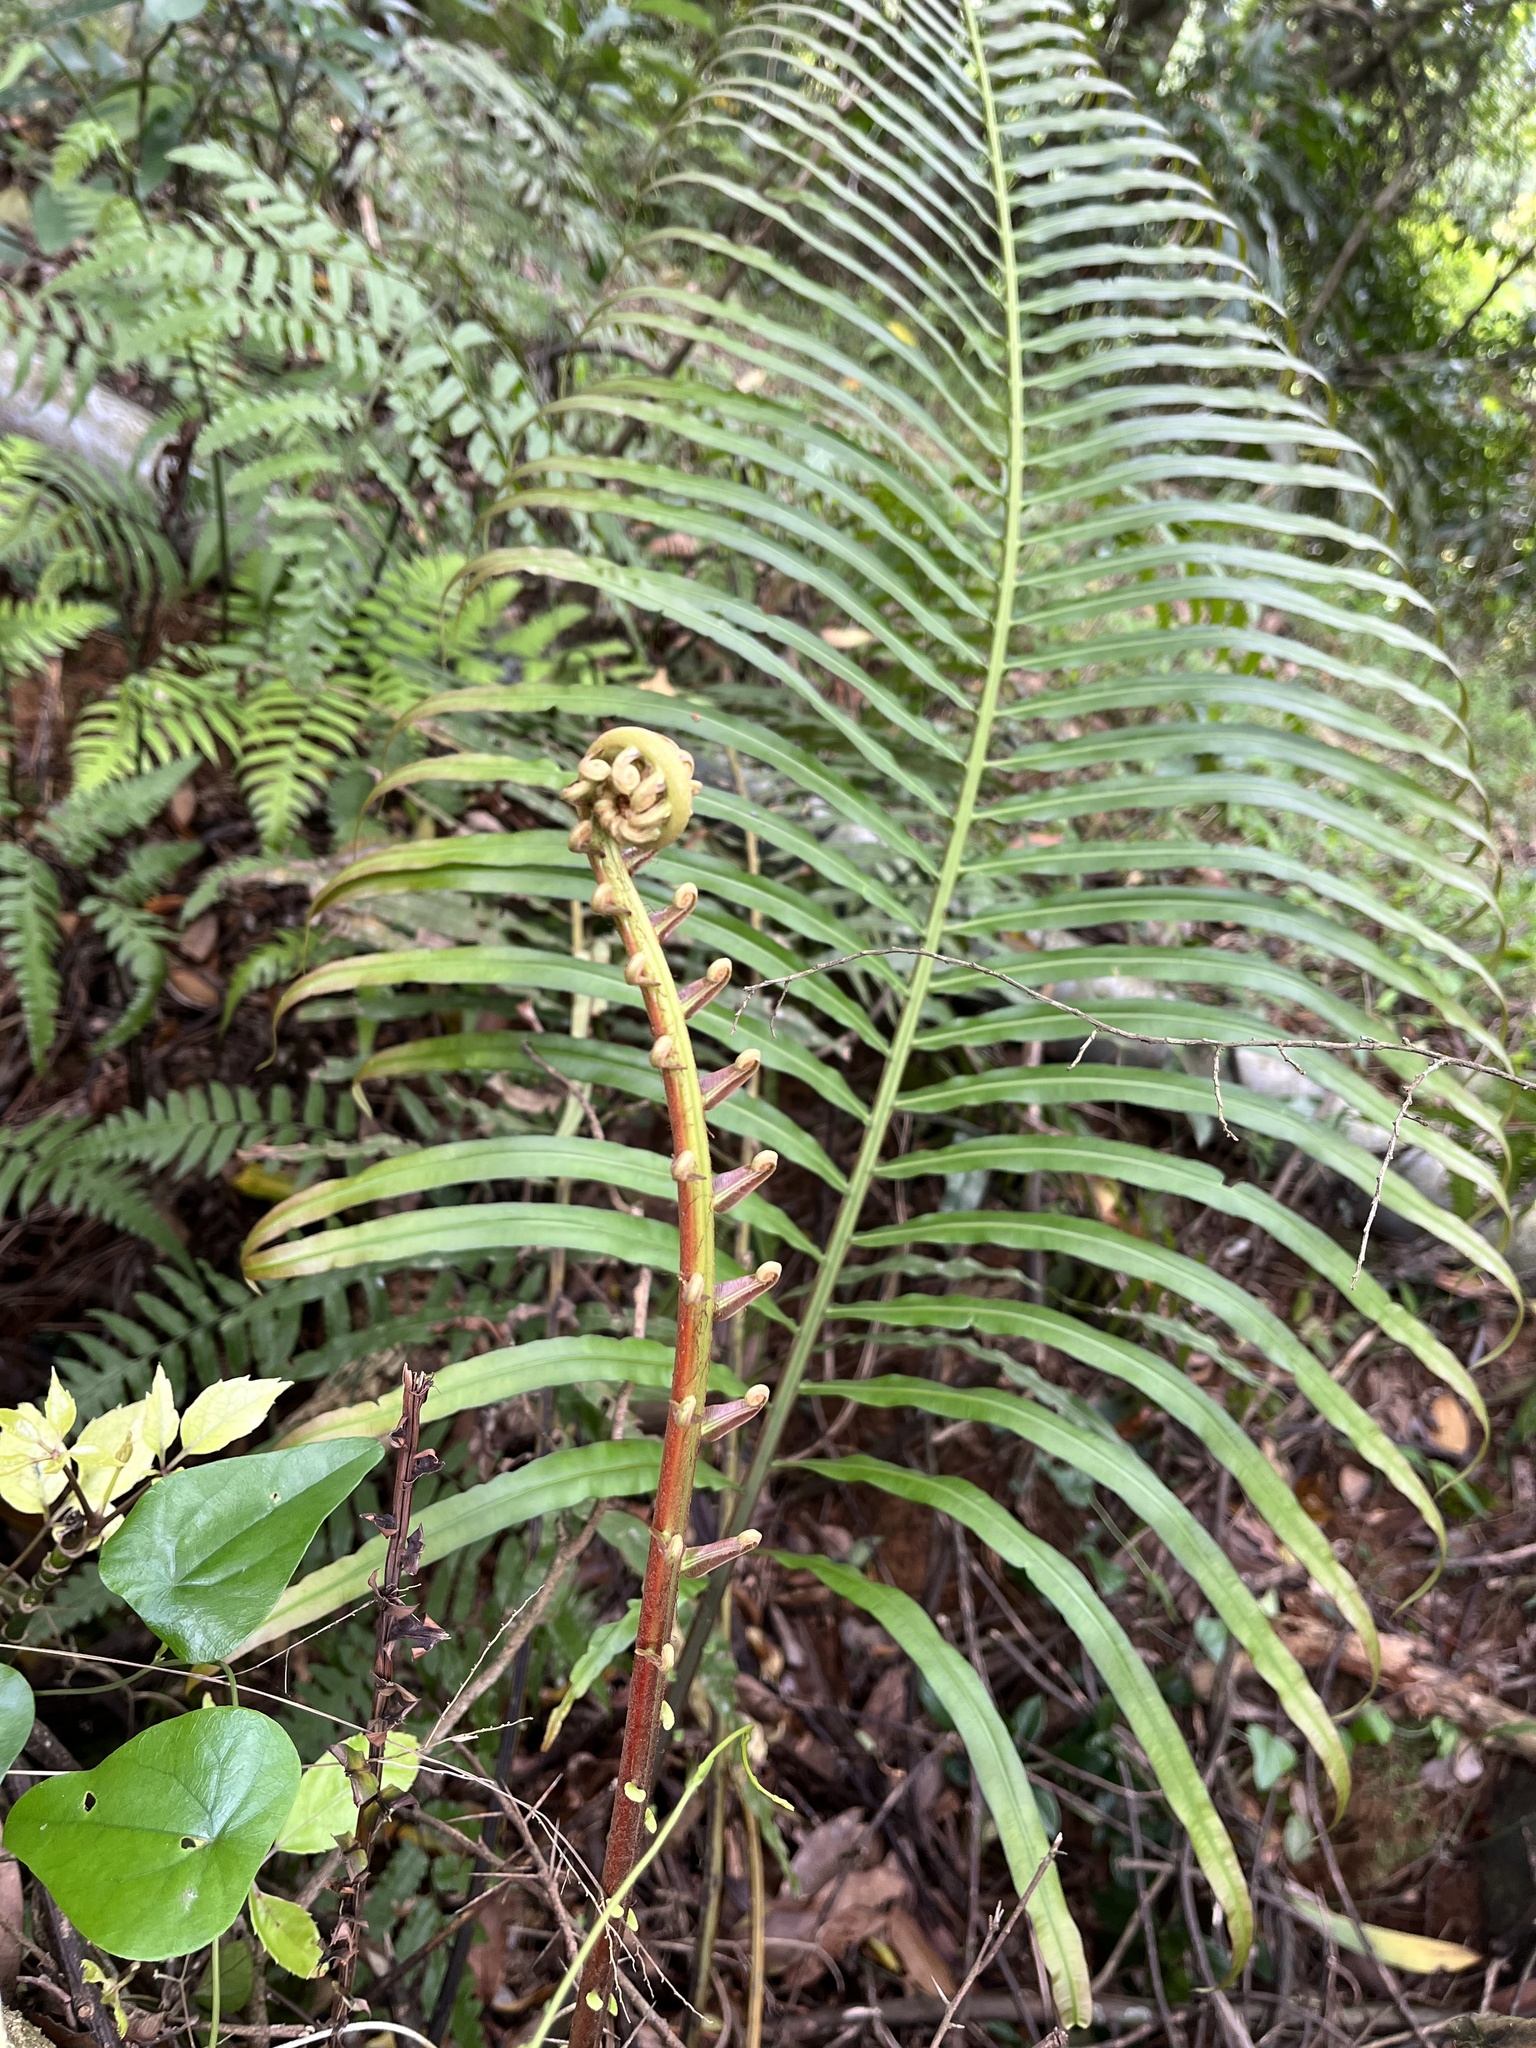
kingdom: Plantae
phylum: Tracheophyta
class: Polypodiopsida
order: Polypodiales
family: Blechnaceae
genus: Blechnopsis
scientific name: Blechnopsis orientalis
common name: Oriental blechnum
